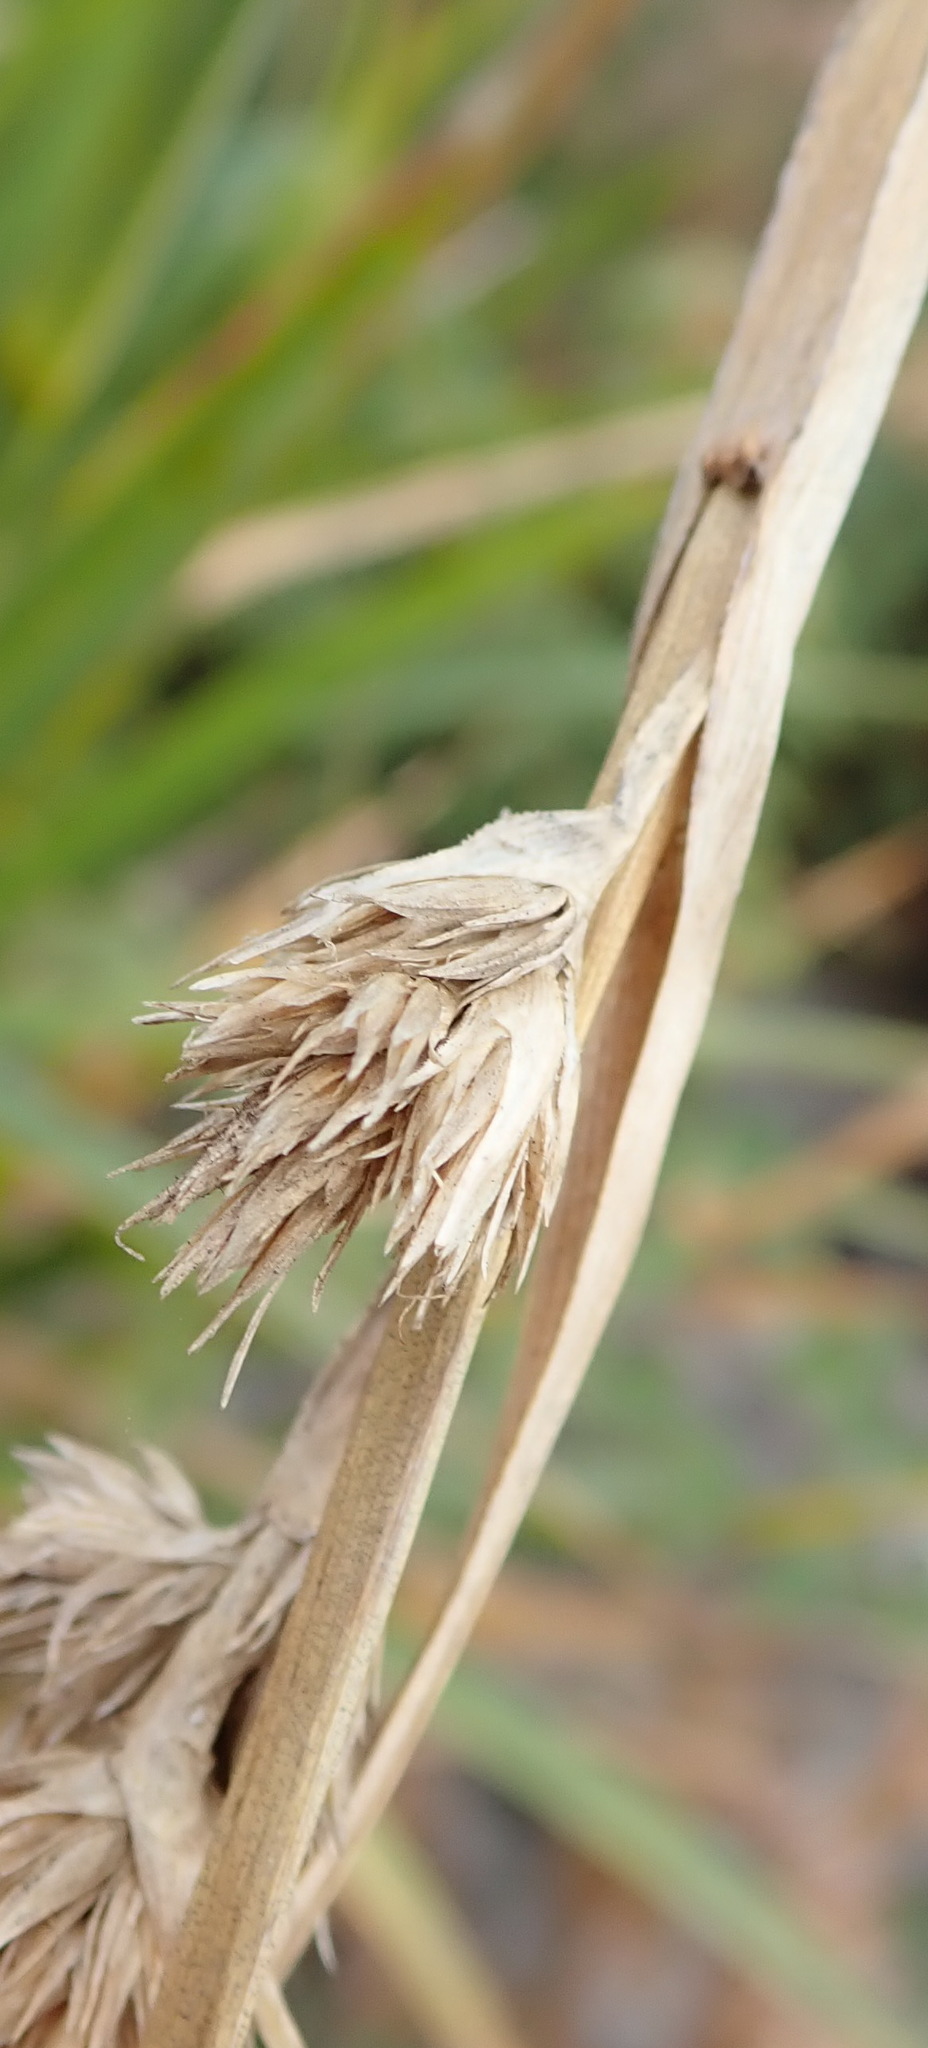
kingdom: Plantae
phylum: Tracheophyta
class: Liliopsida
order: Poales
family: Cyperaceae
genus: Carpha
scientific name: Carpha glomerata
